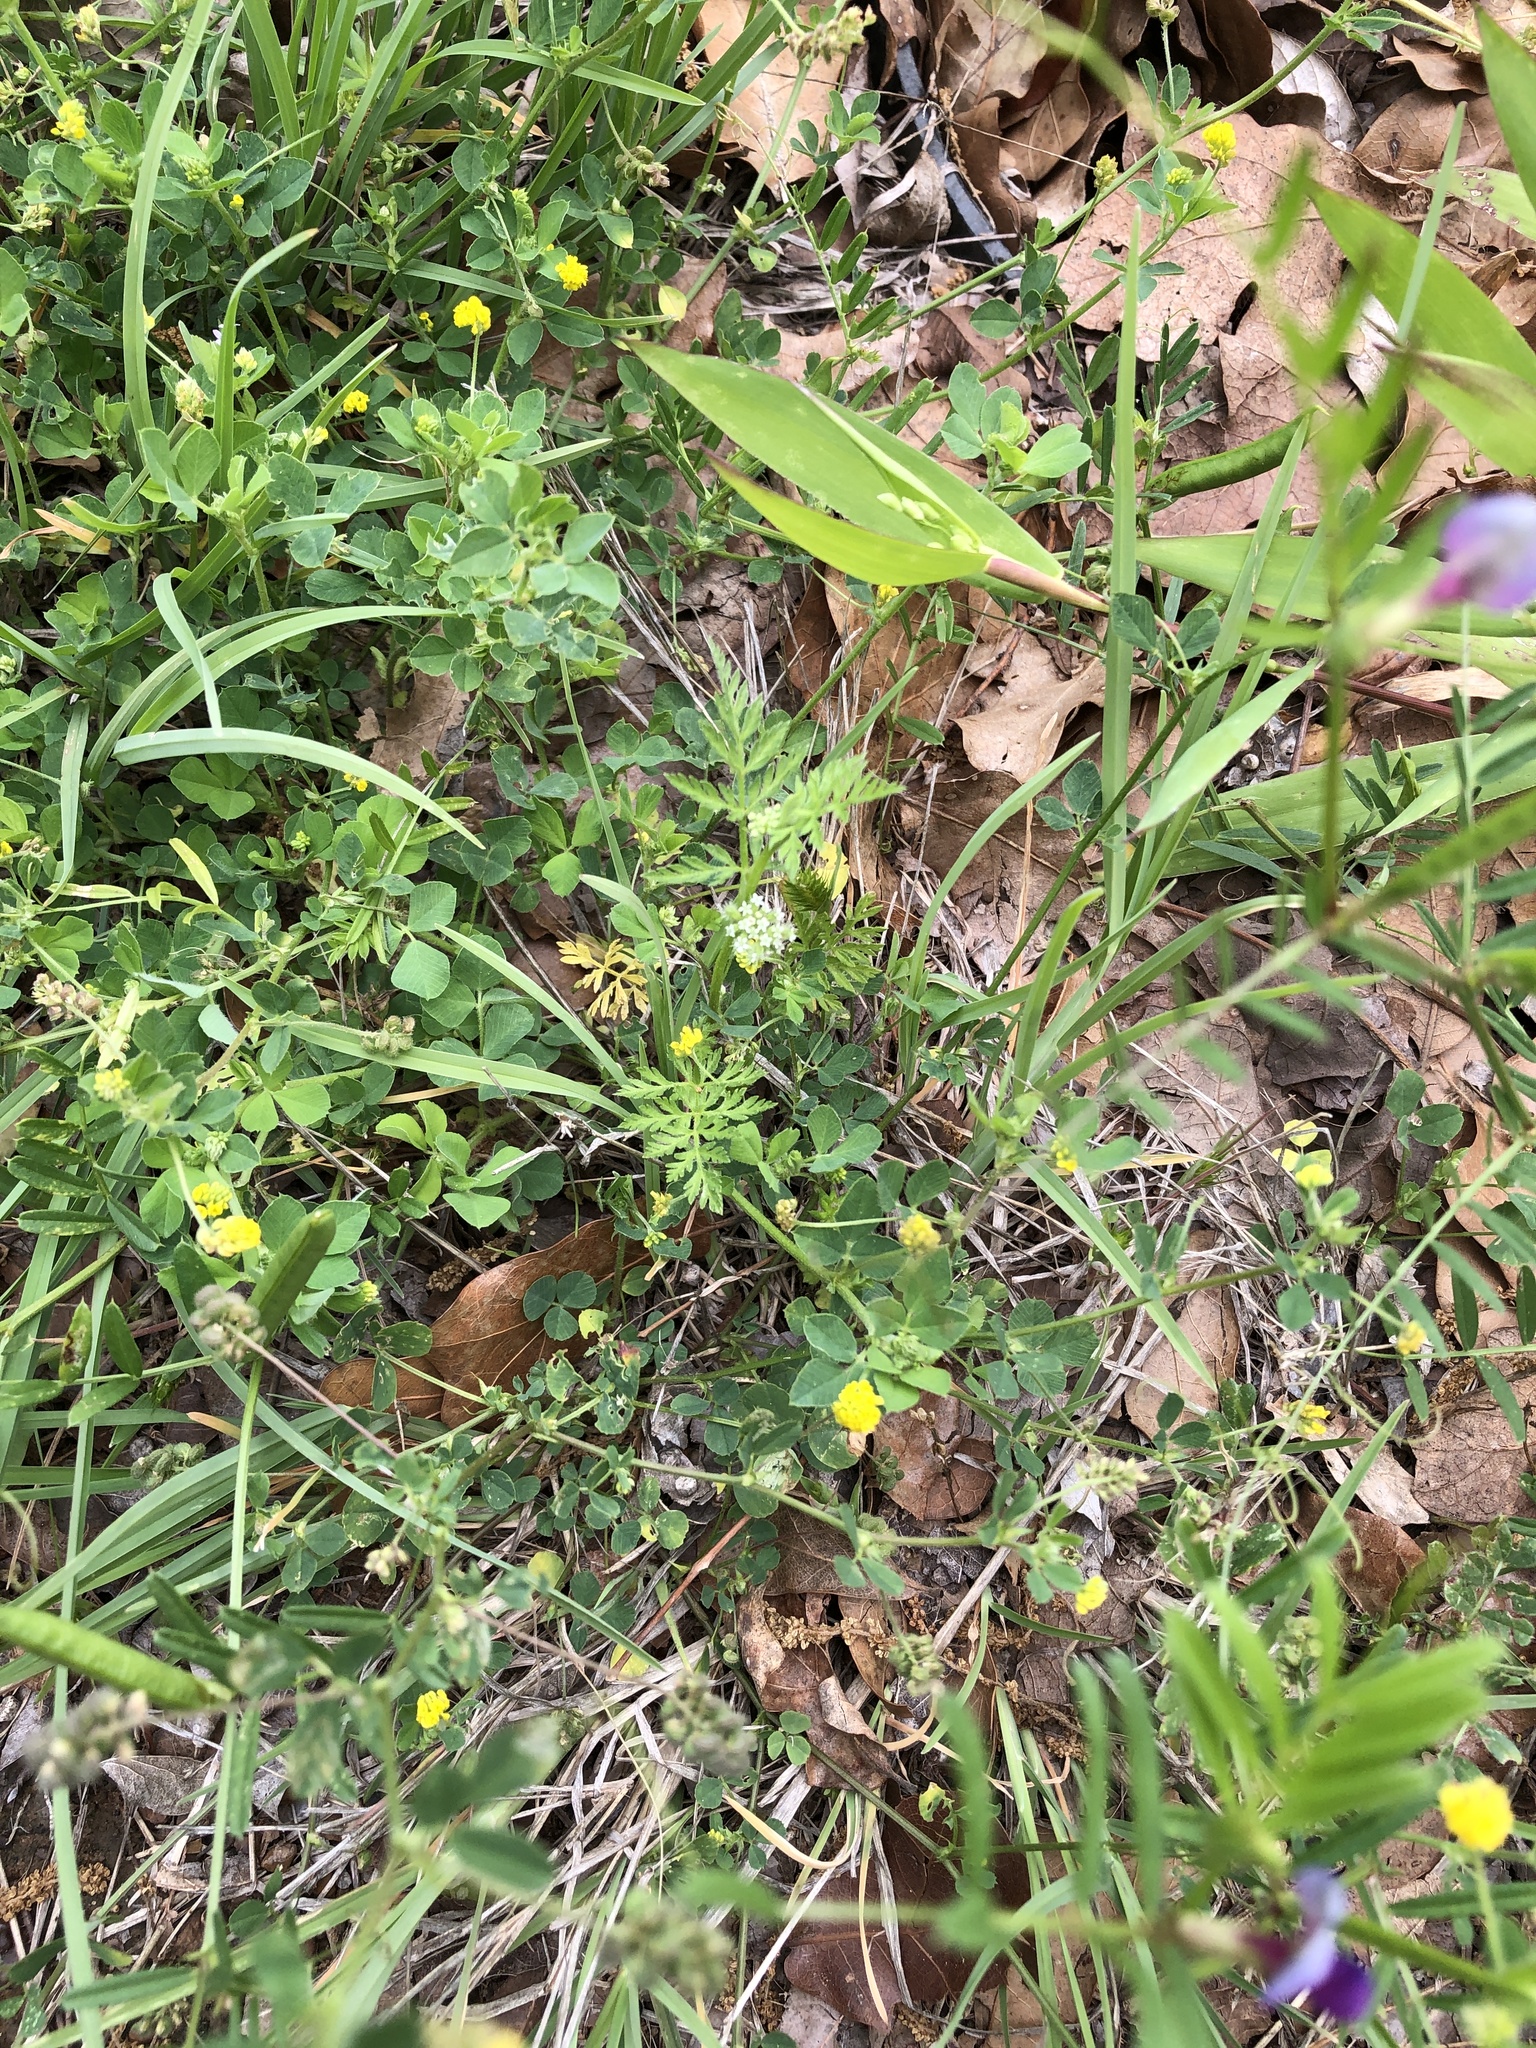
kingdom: Plantae
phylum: Tracheophyta
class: Magnoliopsida
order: Apiales
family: Apiaceae
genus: Torilis
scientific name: Torilis nodosa
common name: Knotted hedge-parsley
